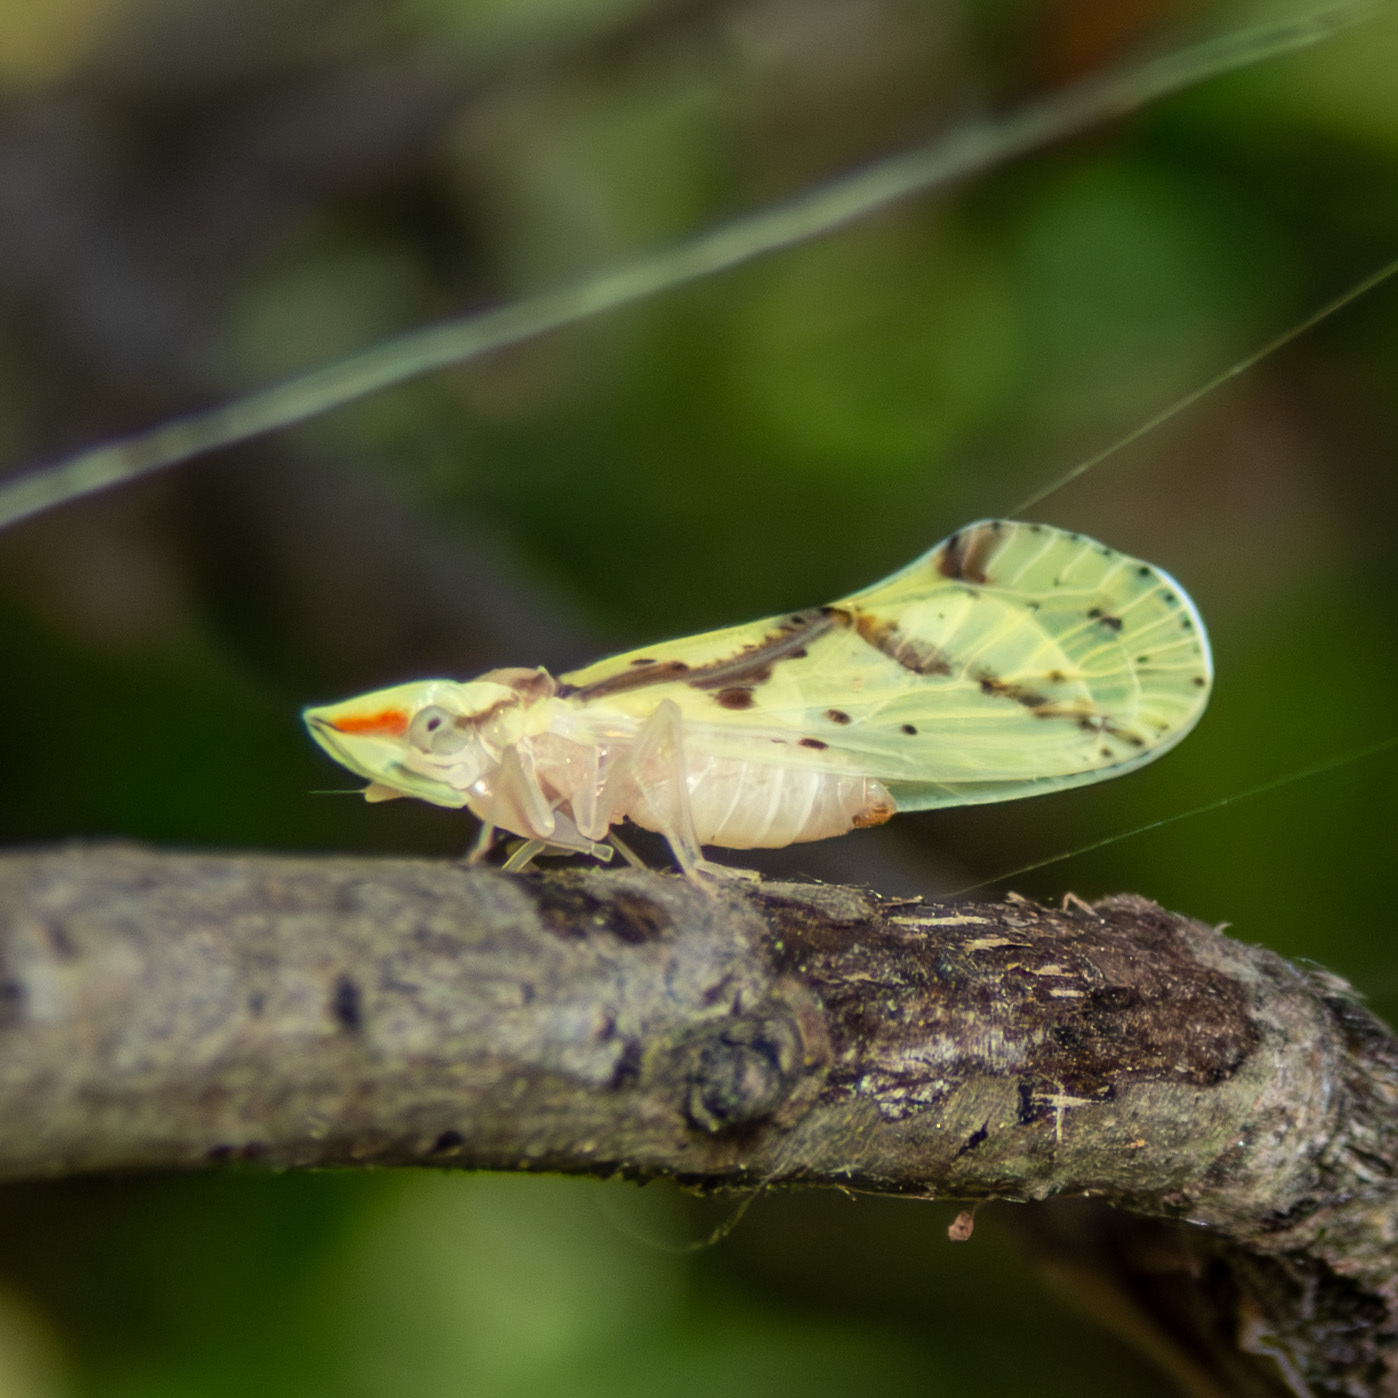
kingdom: Animalia
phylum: Arthropoda
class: Insecta
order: Hemiptera
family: Derbidae
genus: Otiocerus
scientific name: Otiocerus wolfii
